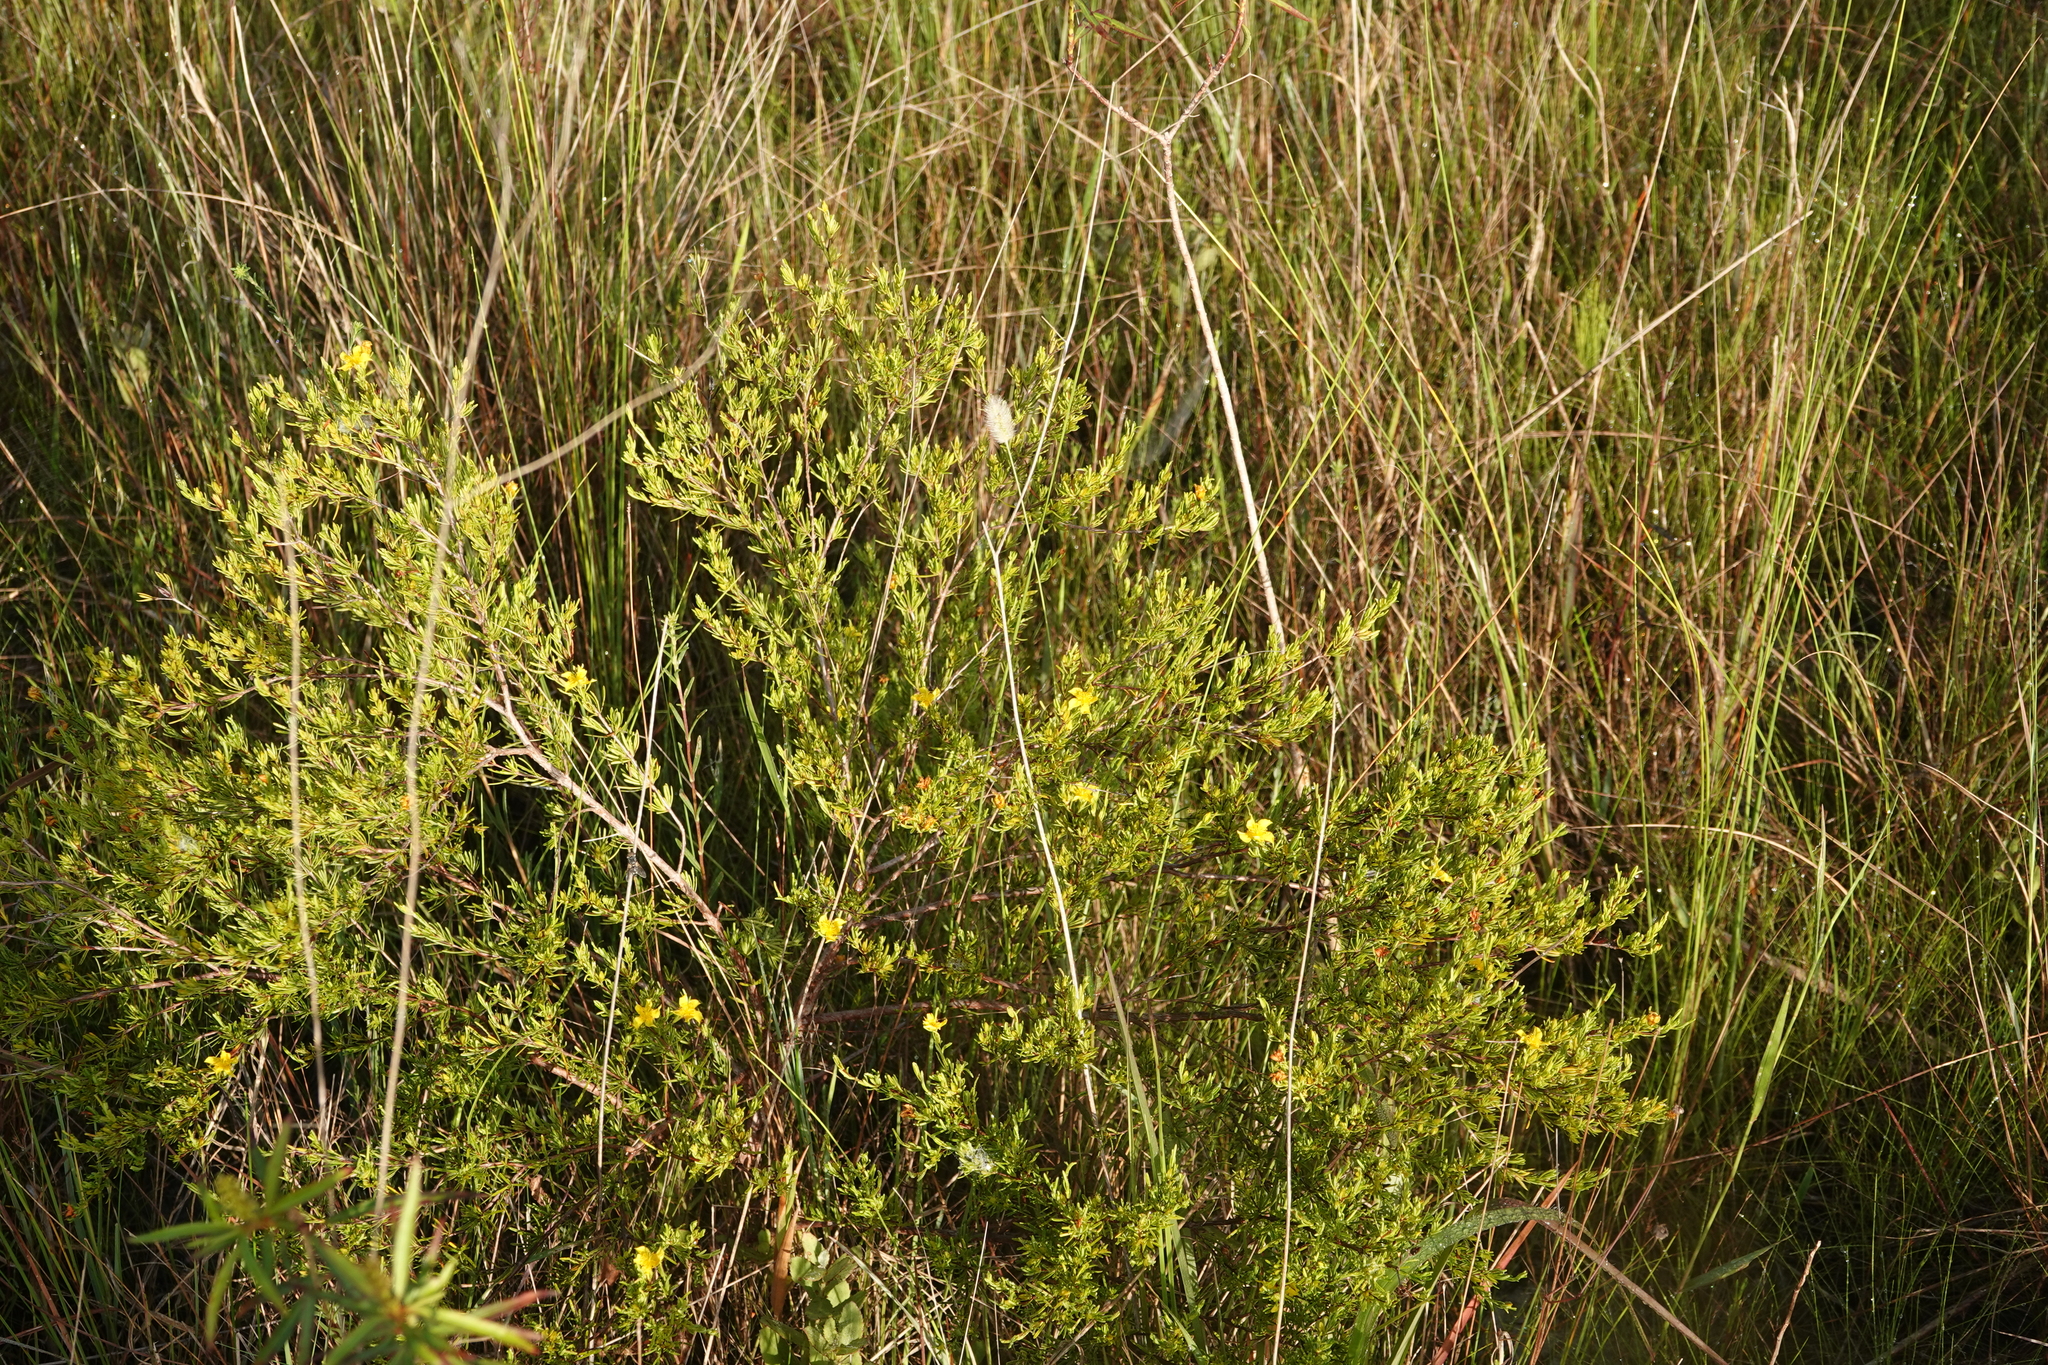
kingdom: Plantae
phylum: Tracheophyta
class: Magnoliopsida
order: Malpighiales
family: Hypericaceae
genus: Hypericum
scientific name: Hypericum fasciculatum
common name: Peelbark st. john's wort
